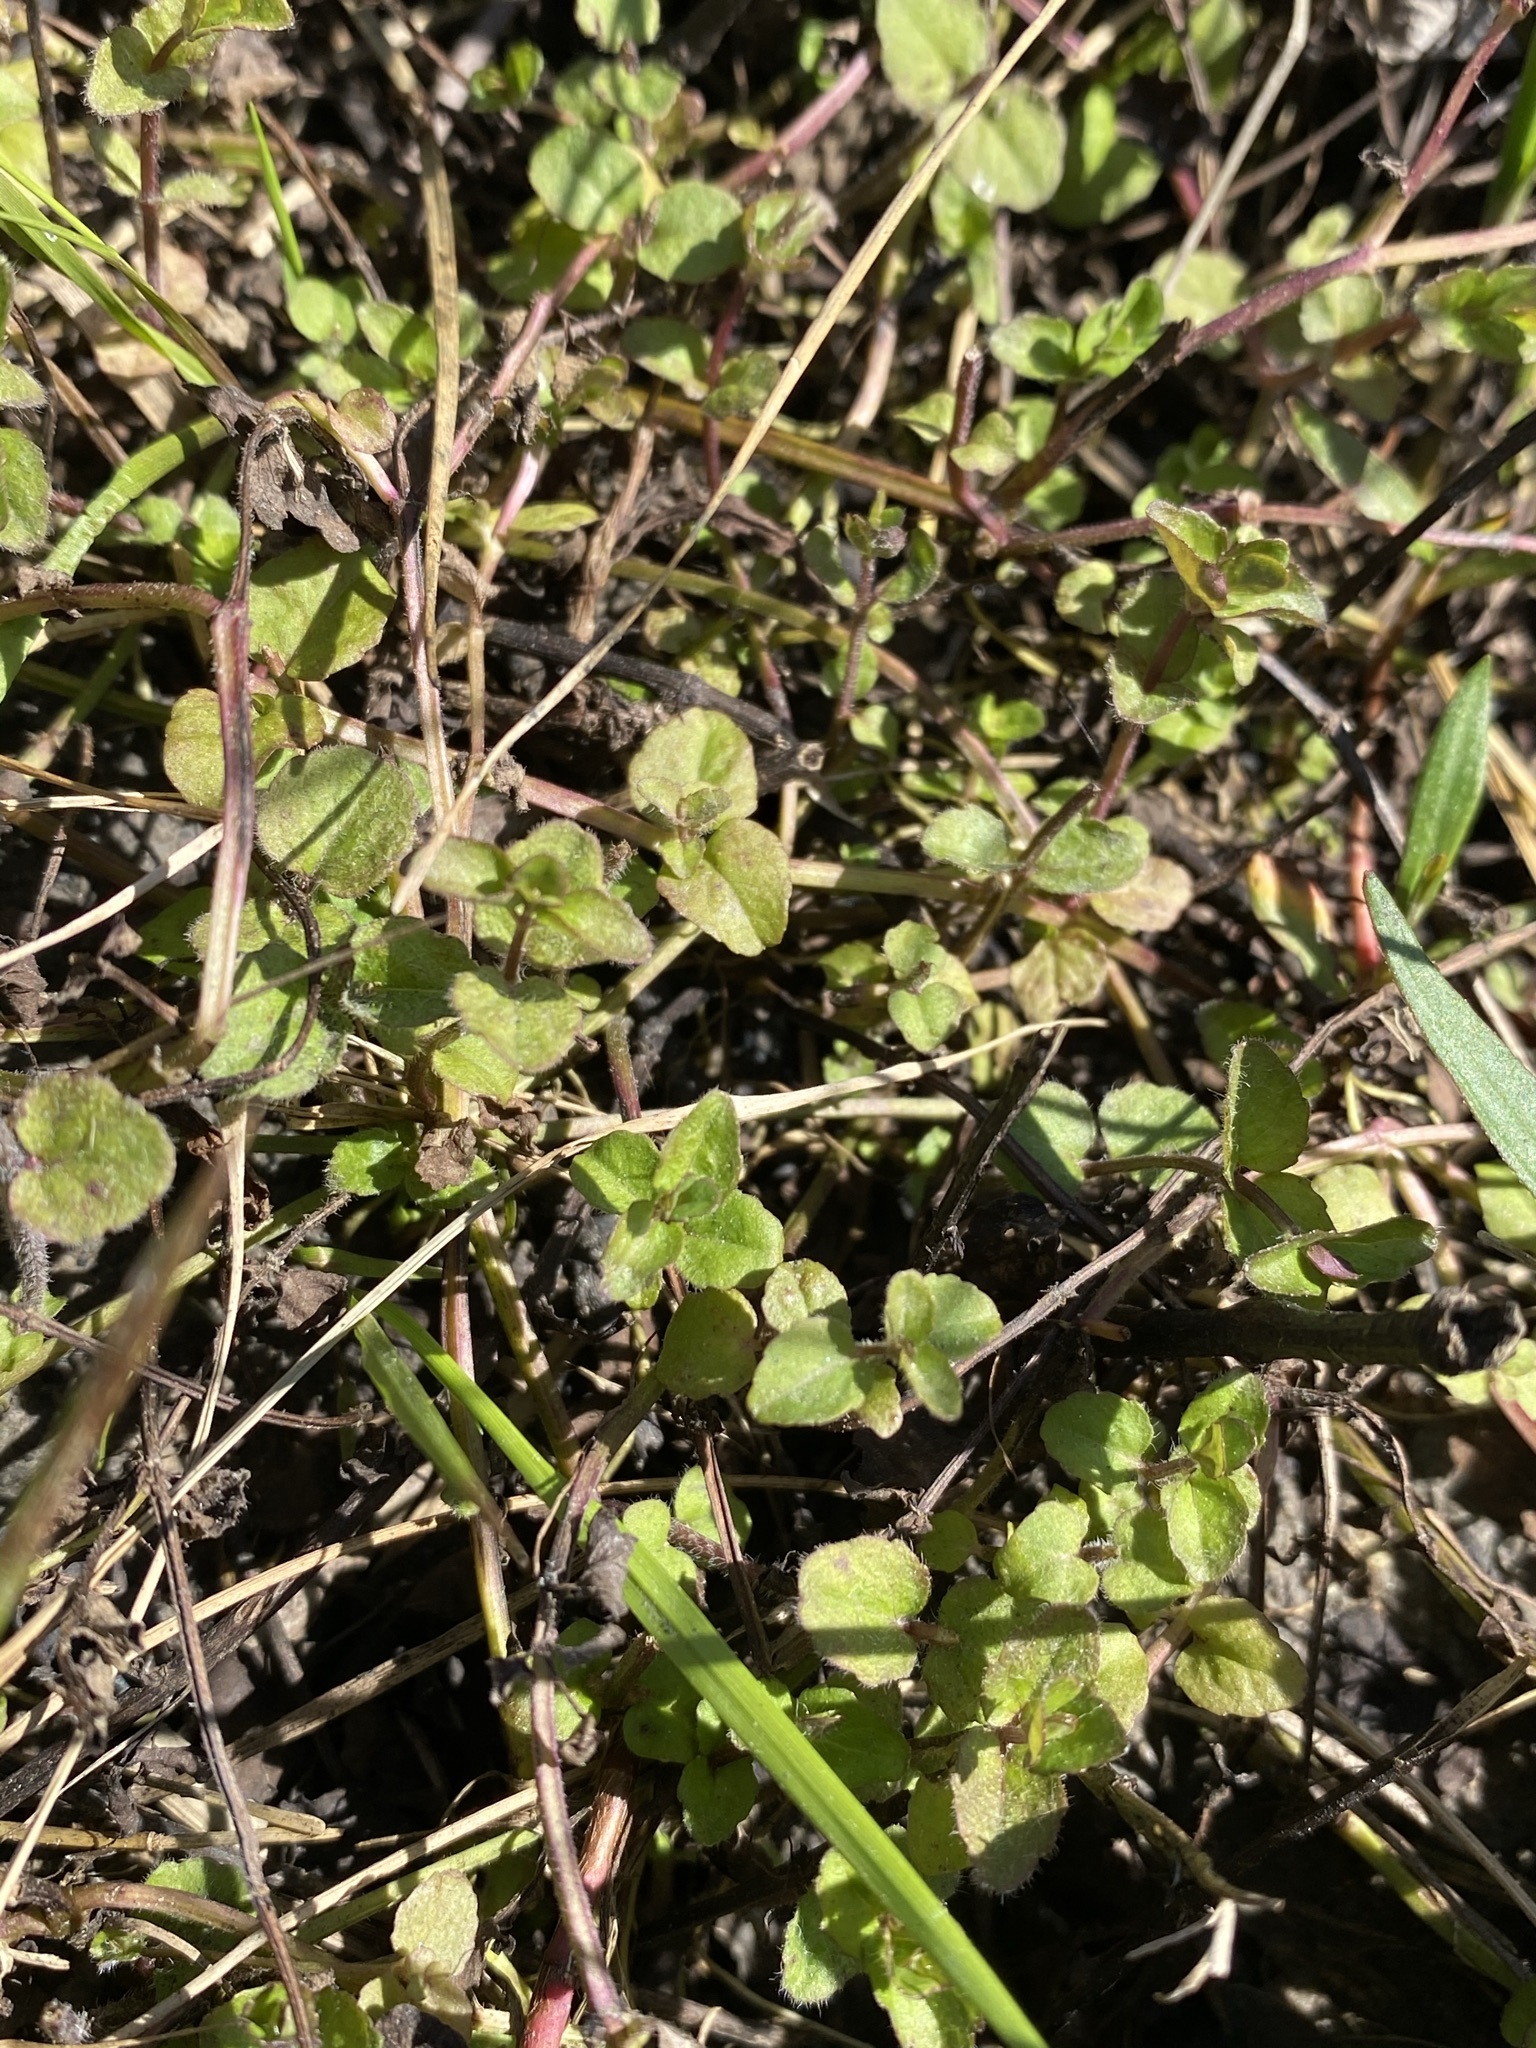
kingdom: Plantae
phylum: Tracheophyta
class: Magnoliopsida
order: Lamiales
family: Lamiaceae
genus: Clinopodium
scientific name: Clinopodium brownei
